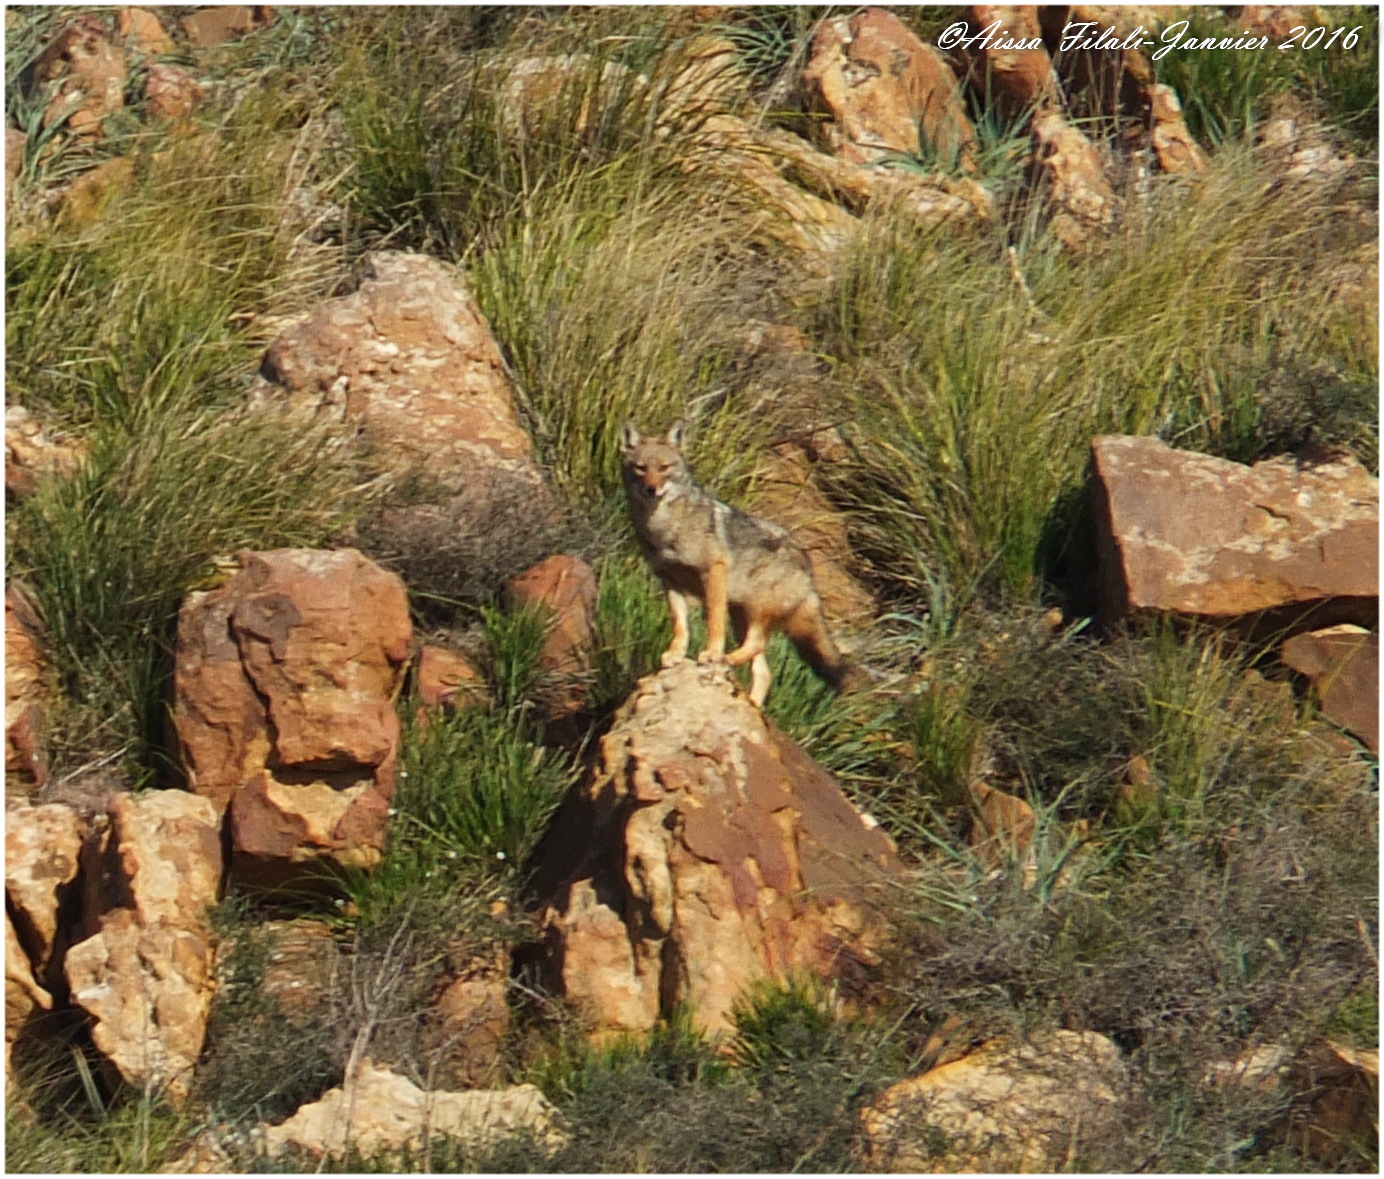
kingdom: Animalia
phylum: Chordata
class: Mammalia
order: Carnivora
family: Canidae
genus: Canis
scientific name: Canis lupaster
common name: African golden wolf
